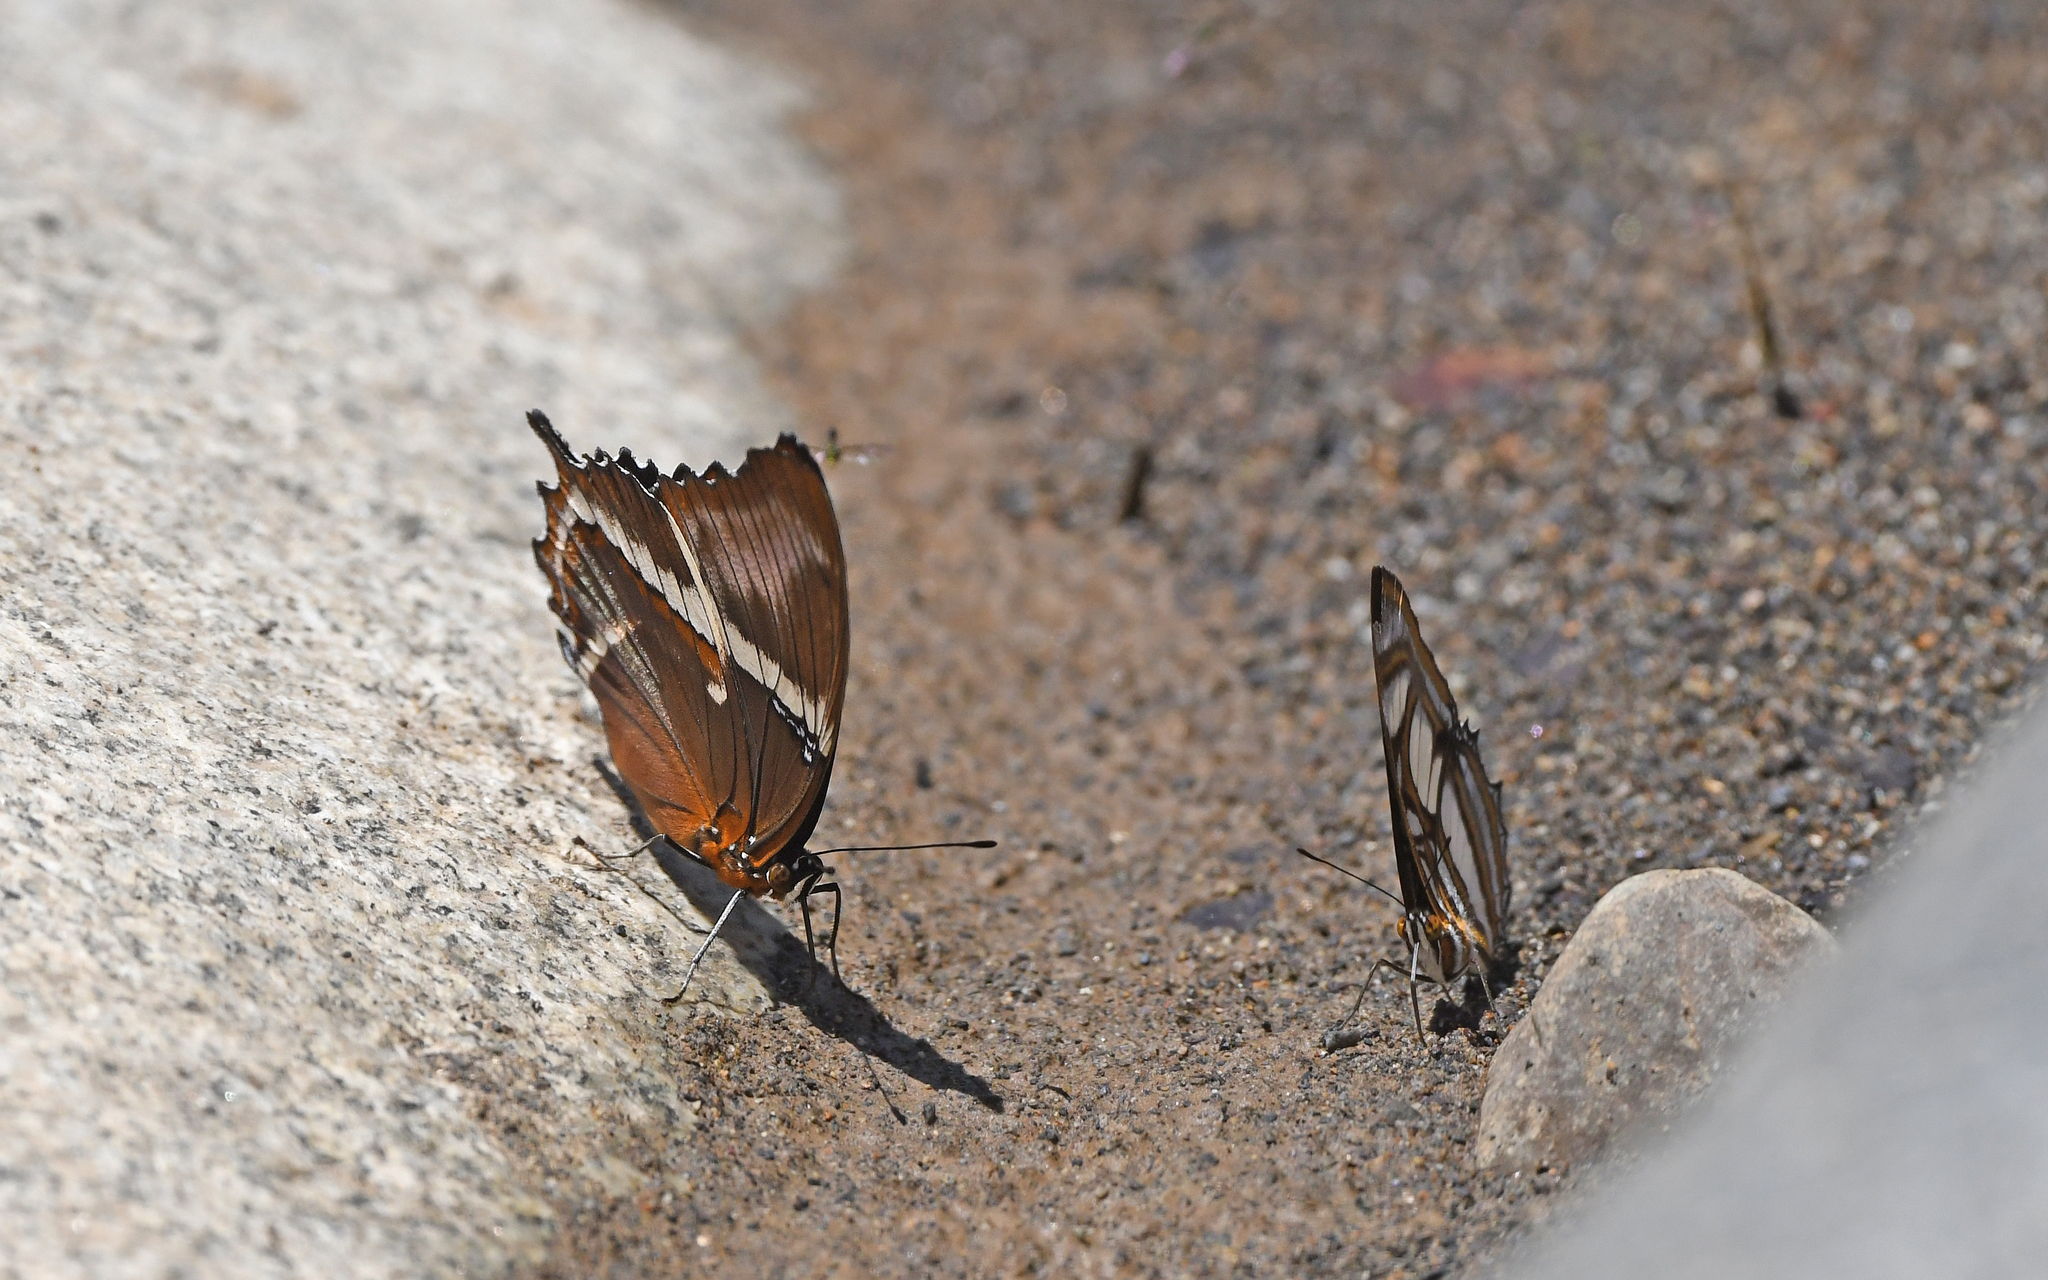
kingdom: Animalia
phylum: Arthropoda
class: Insecta
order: Lepidoptera
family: Nymphalidae
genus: Siproeta
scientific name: Siproeta epaphus
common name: Rusty-tipped page
